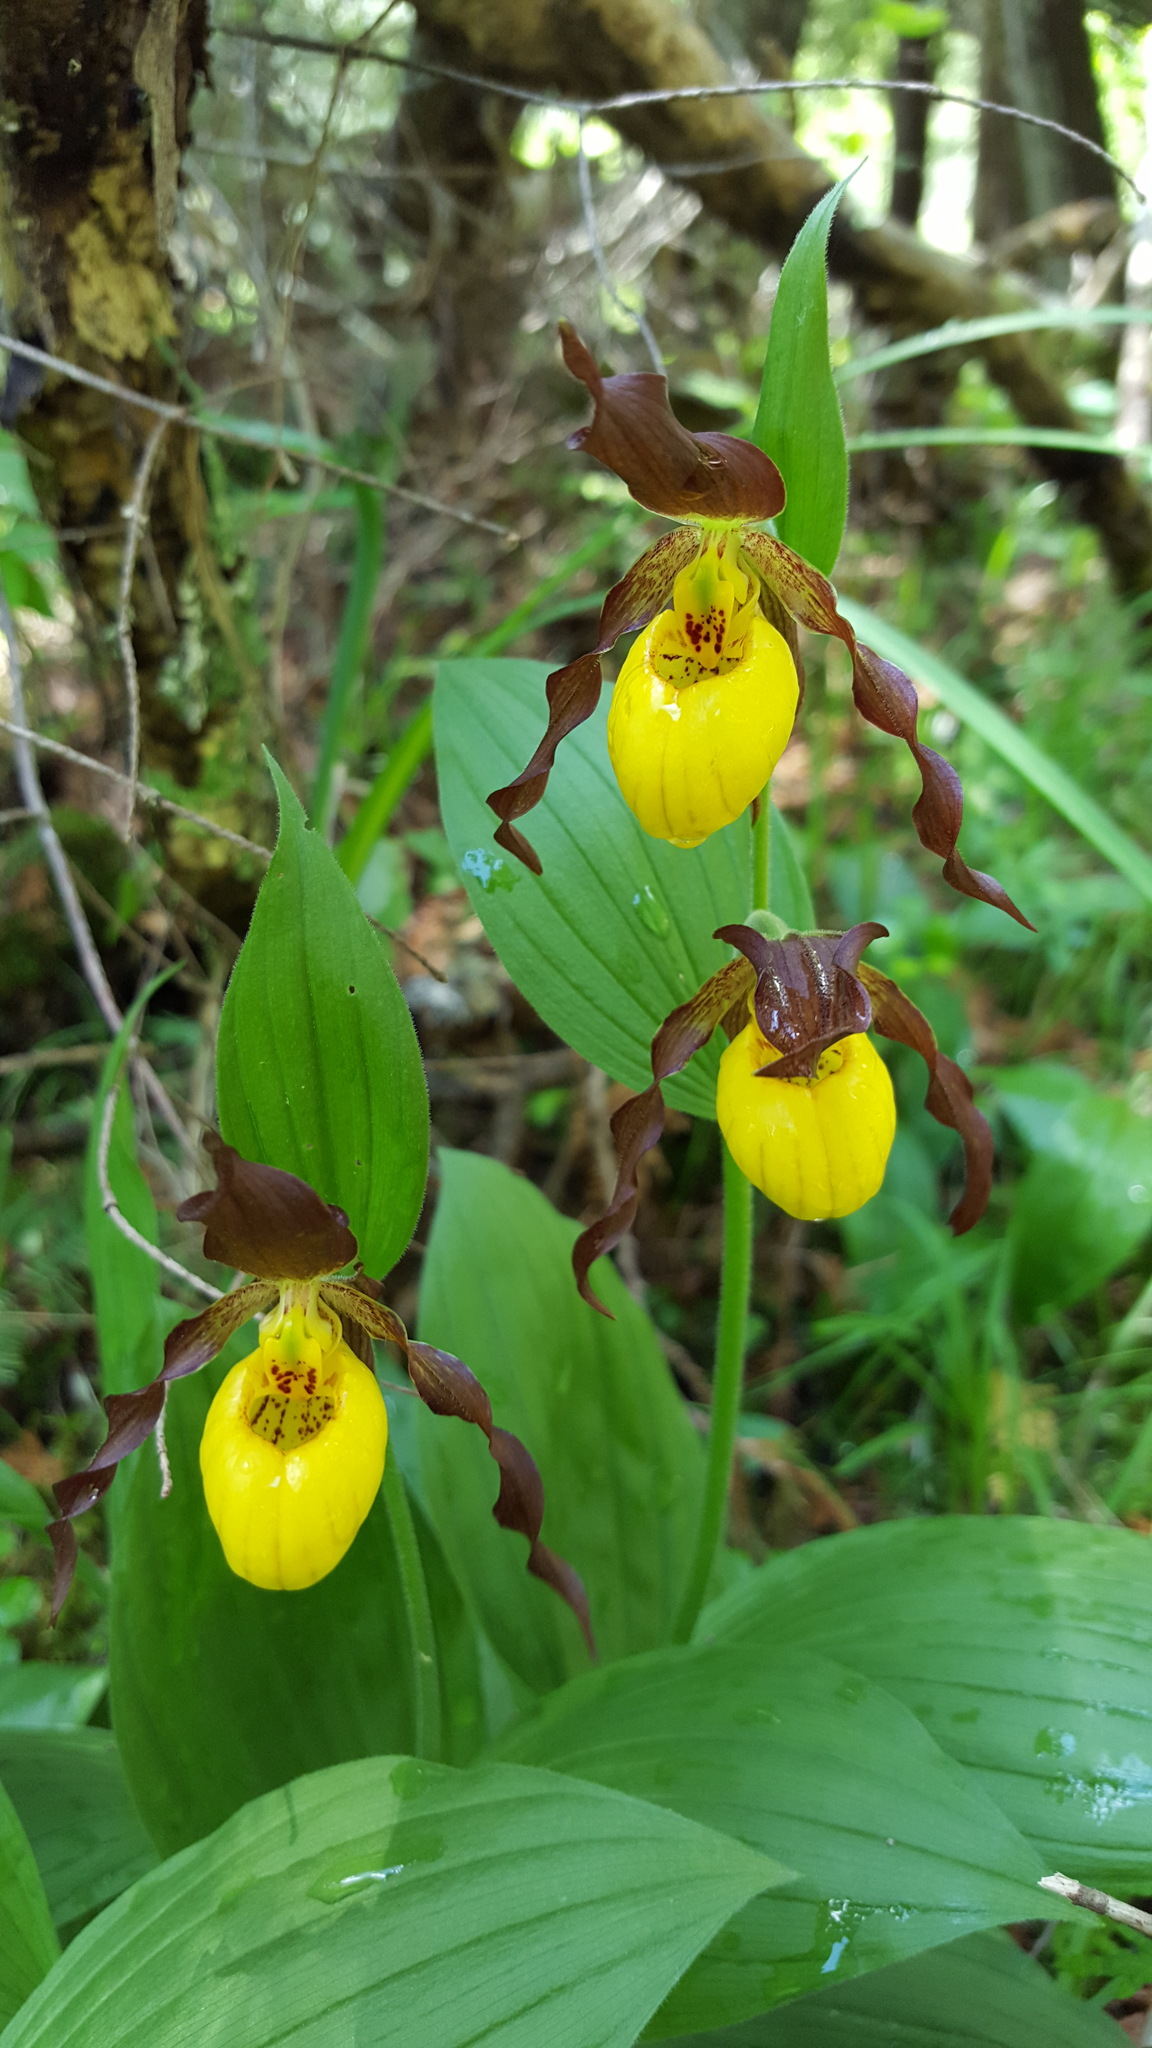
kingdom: Plantae
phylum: Tracheophyta
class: Liliopsida
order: Asparagales
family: Orchidaceae
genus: Cypripedium
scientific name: Cypripedium parviflorum
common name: American yellow lady's-slipper
